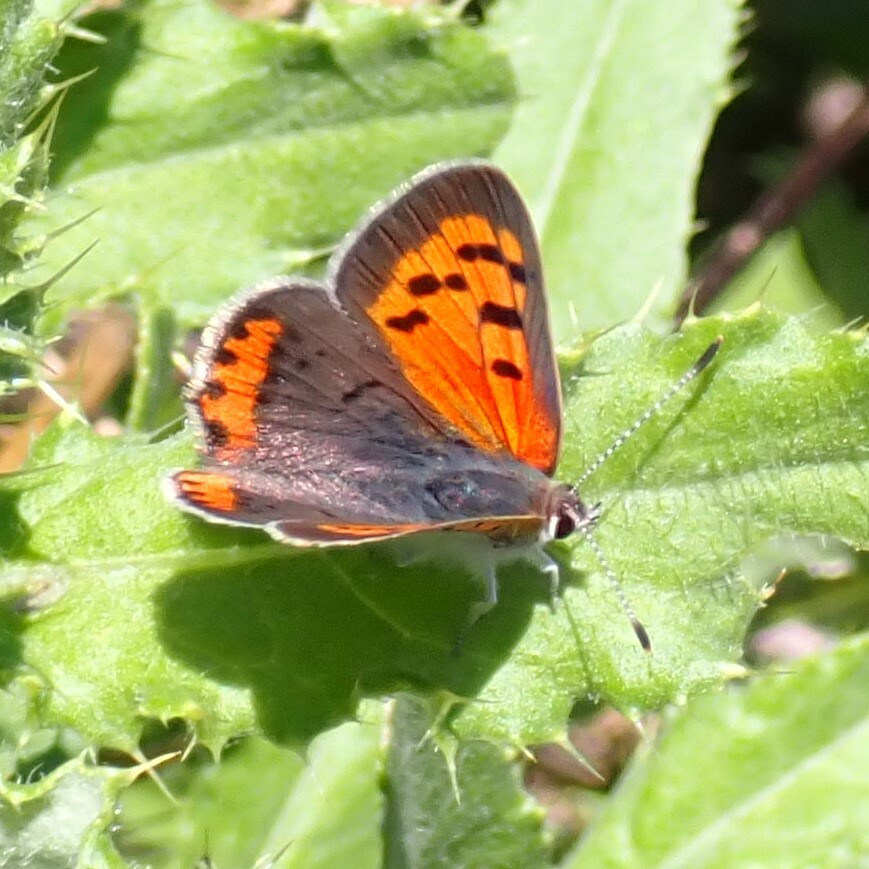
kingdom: Animalia
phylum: Arthropoda
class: Insecta
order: Lepidoptera
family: Lycaenidae
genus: Lycaena
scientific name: Lycaena hypophlaeas
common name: American copper
